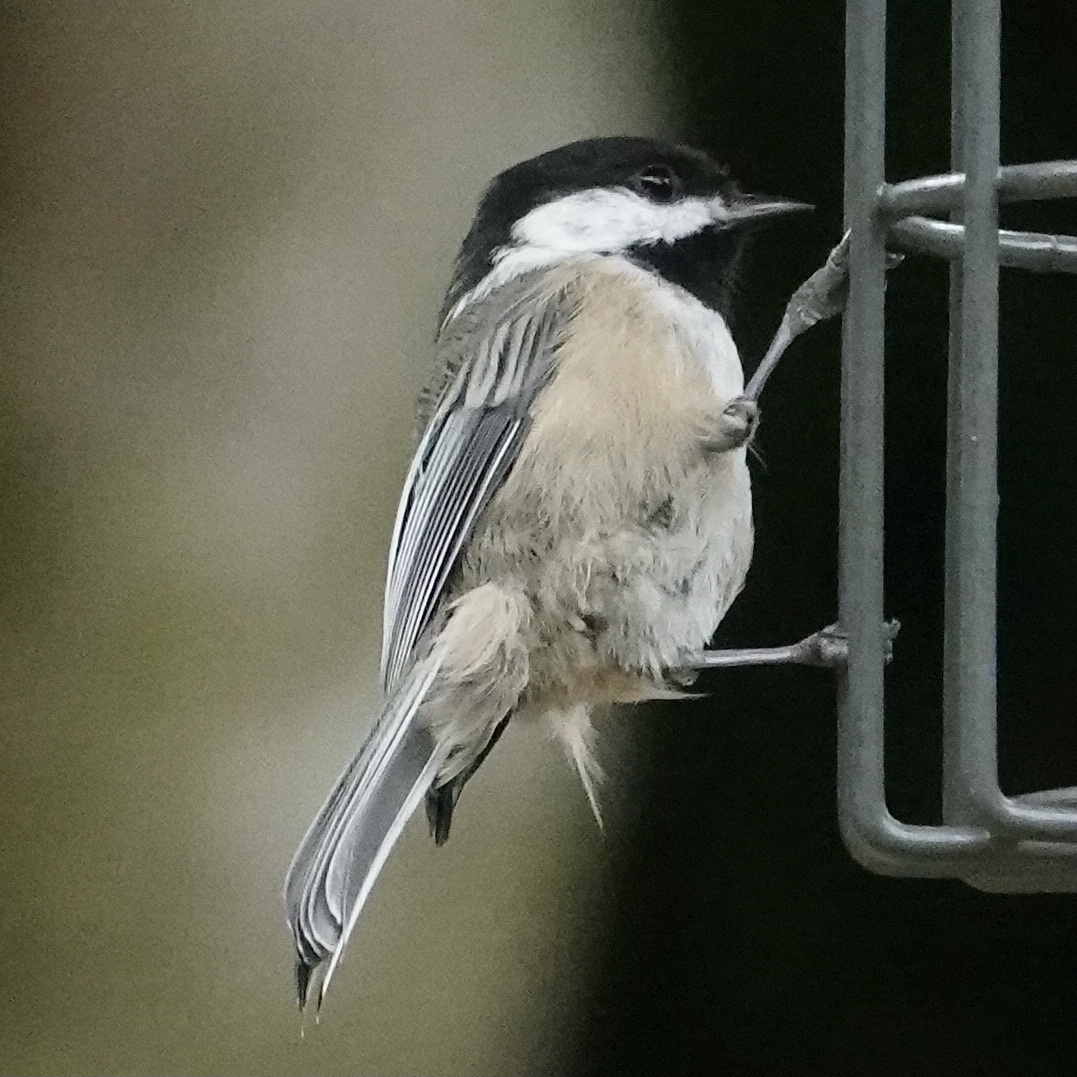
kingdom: Animalia
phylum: Chordata
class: Aves
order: Passeriformes
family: Paridae
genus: Poecile
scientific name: Poecile atricapillus
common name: Black-capped chickadee
